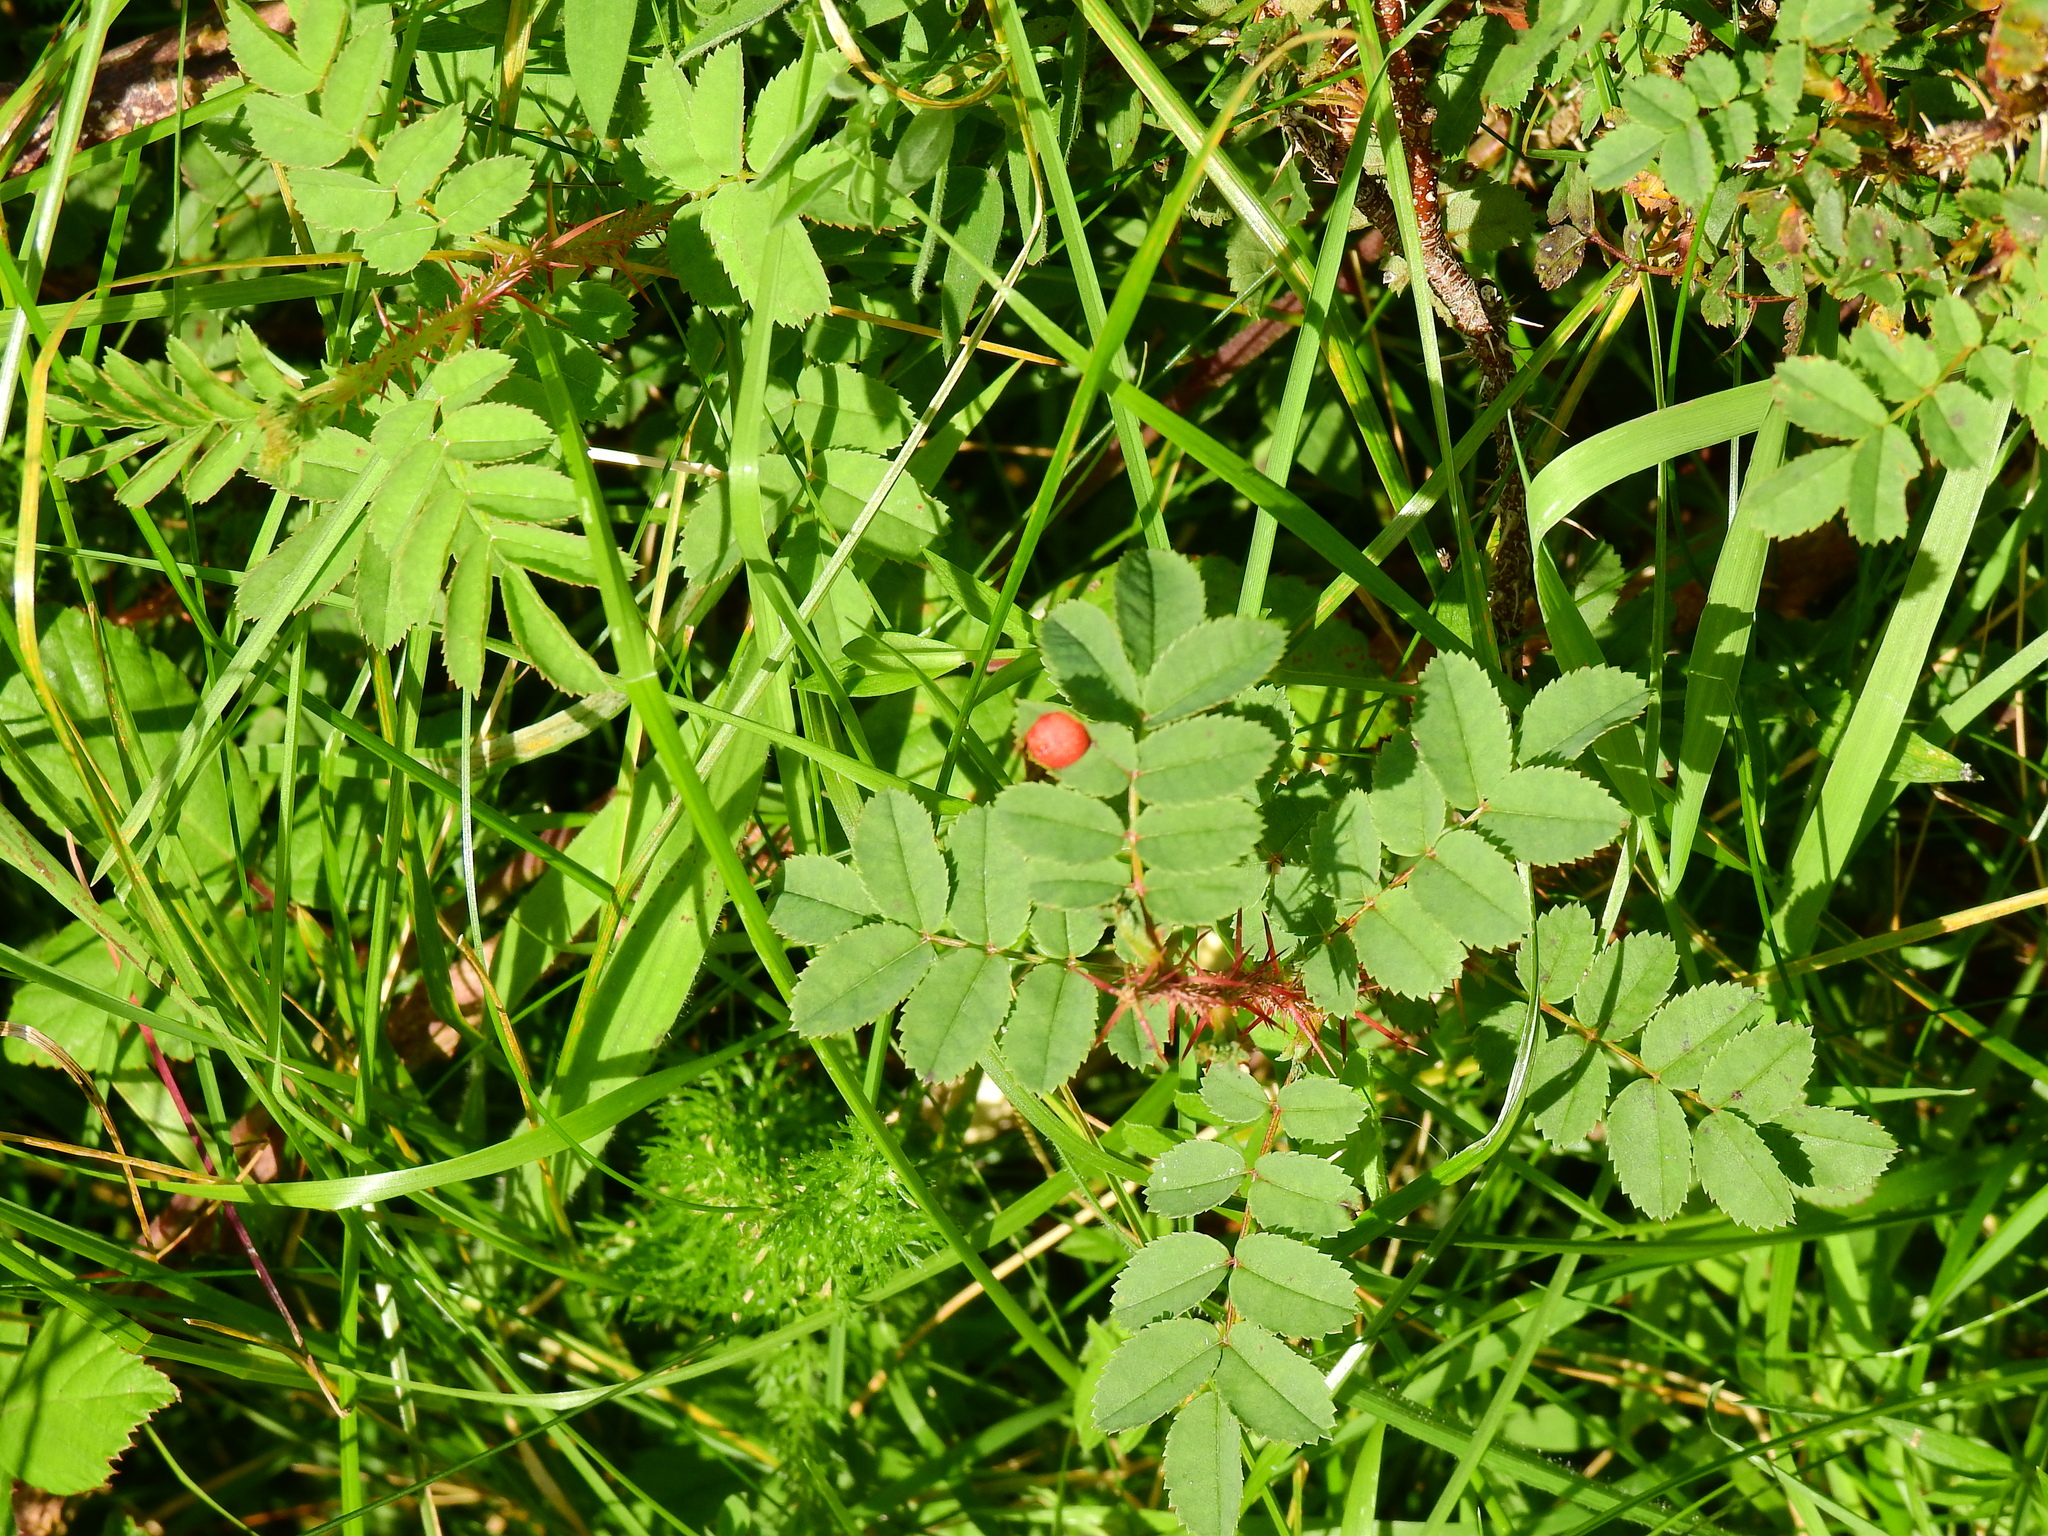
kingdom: Animalia
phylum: Arthropoda
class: Insecta
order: Hymenoptera
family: Cynipidae
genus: Diplolepis
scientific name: Diplolepis
